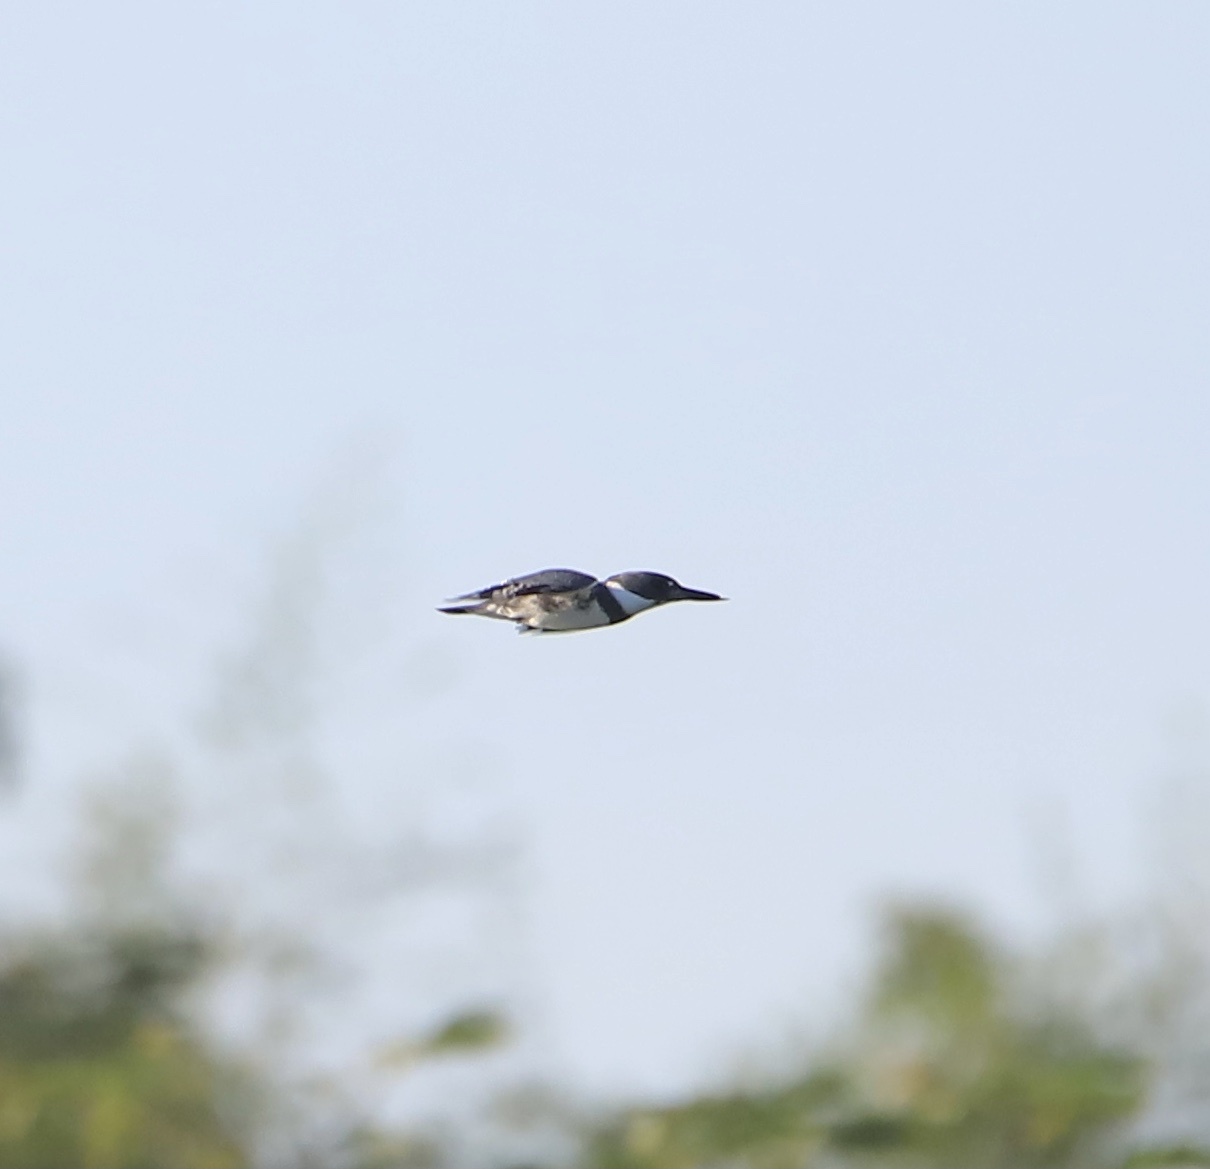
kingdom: Animalia
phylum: Chordata
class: Aves
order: Coraciiformes
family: Alcedinidae
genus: Megaceryle
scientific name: Megaceryle alcyon
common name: Belted kingfisher
